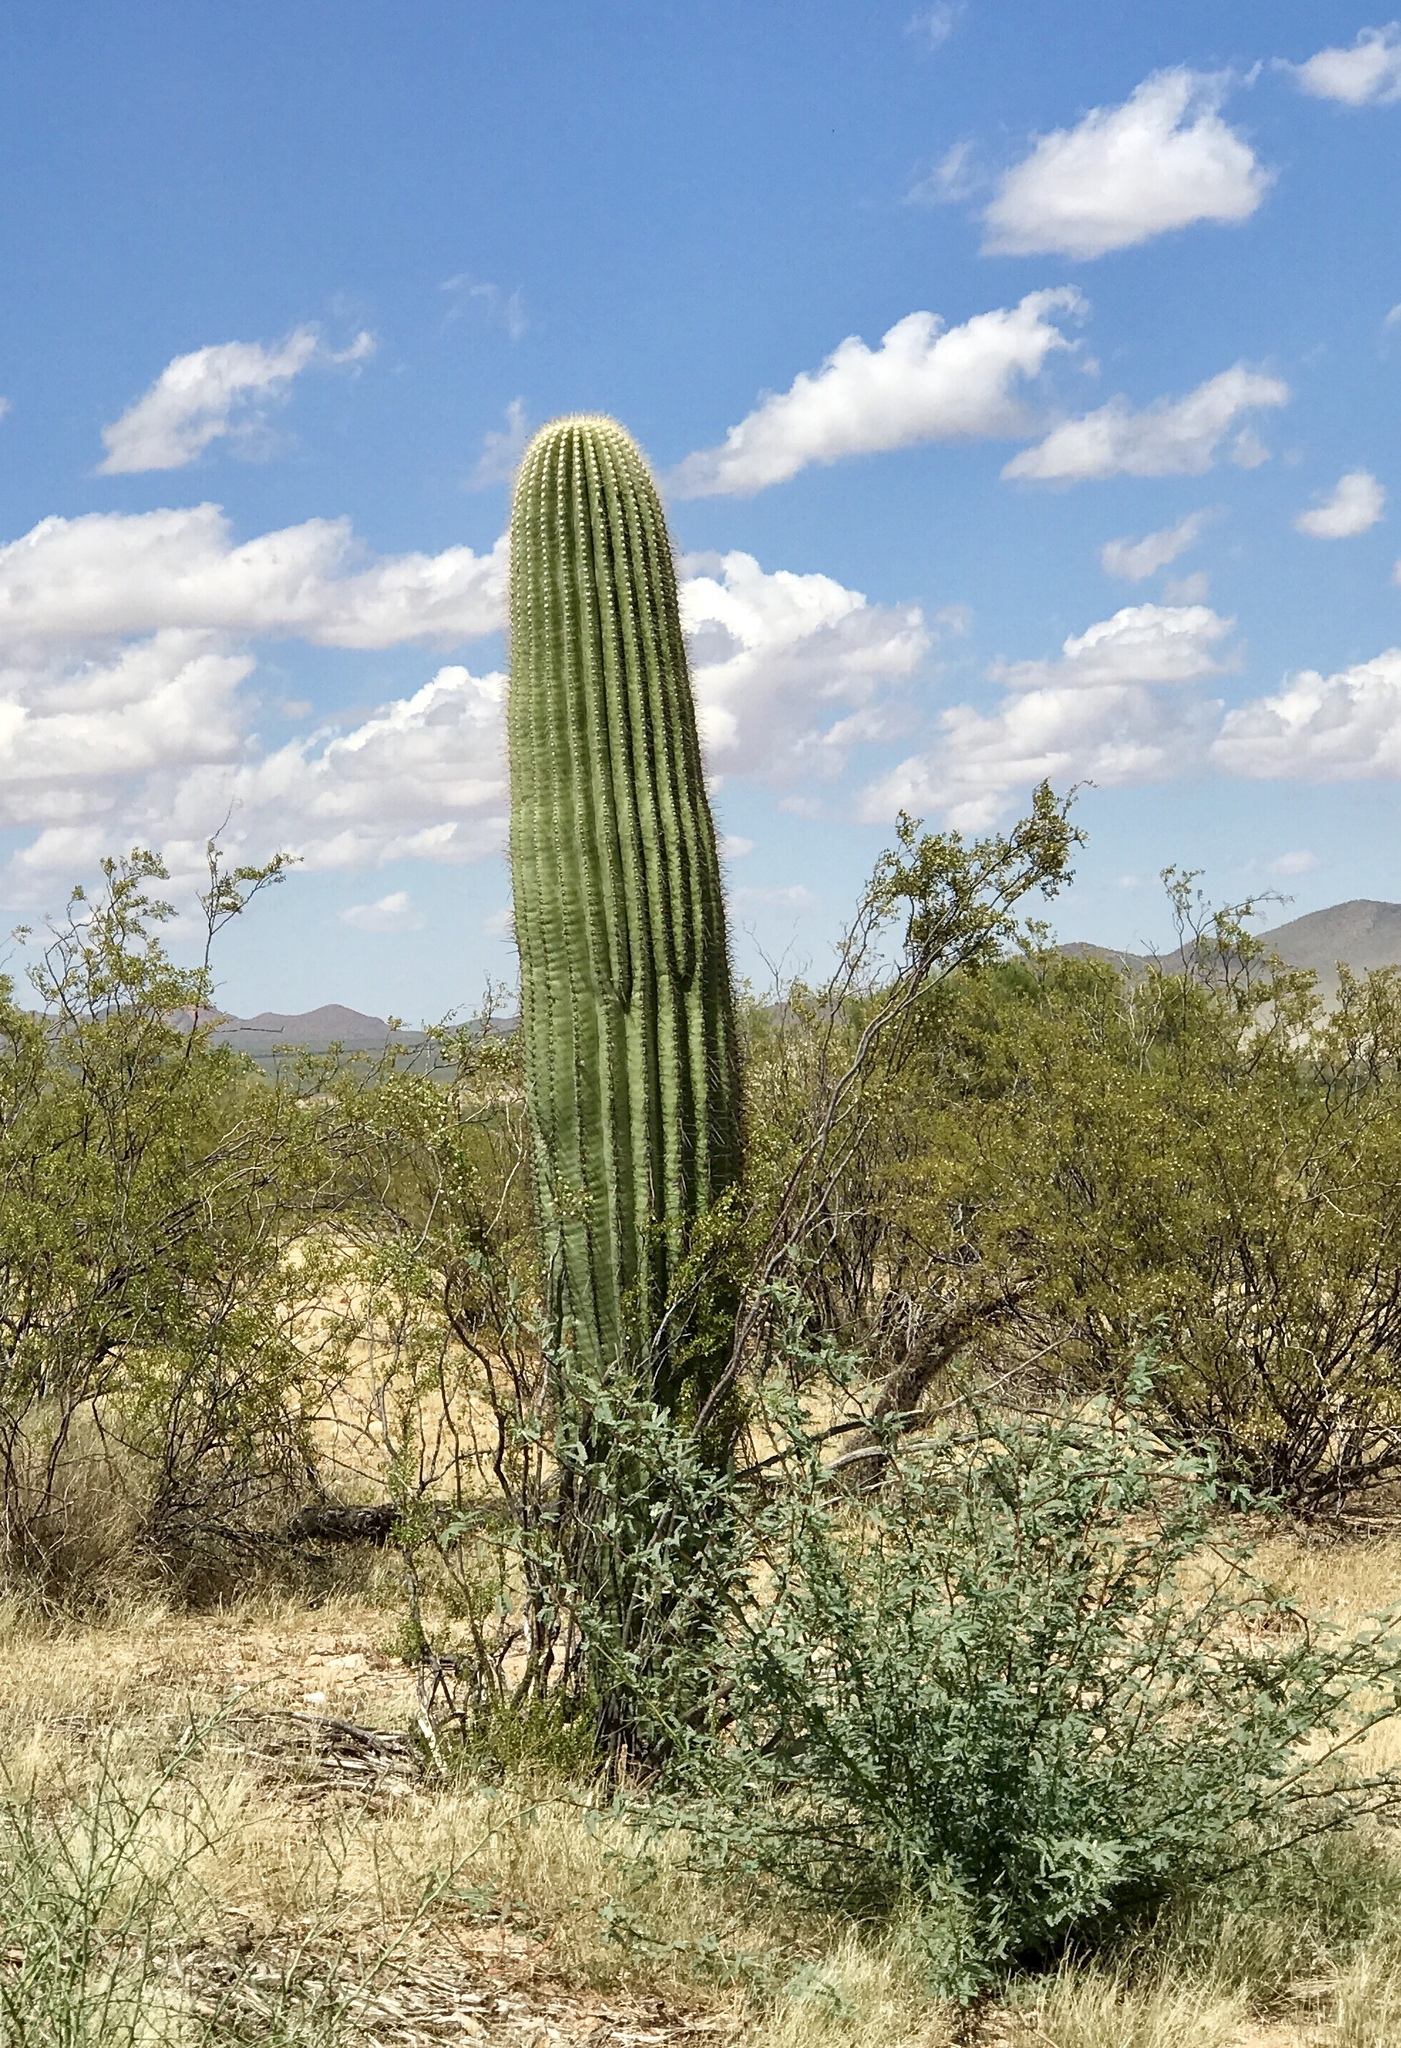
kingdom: Plantae
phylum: Tracheophyta
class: Magnoliopsida
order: Caryophyllales
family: Cactaceae
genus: Carnegiea
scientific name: Carnegiea gigantea
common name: Saguaro
